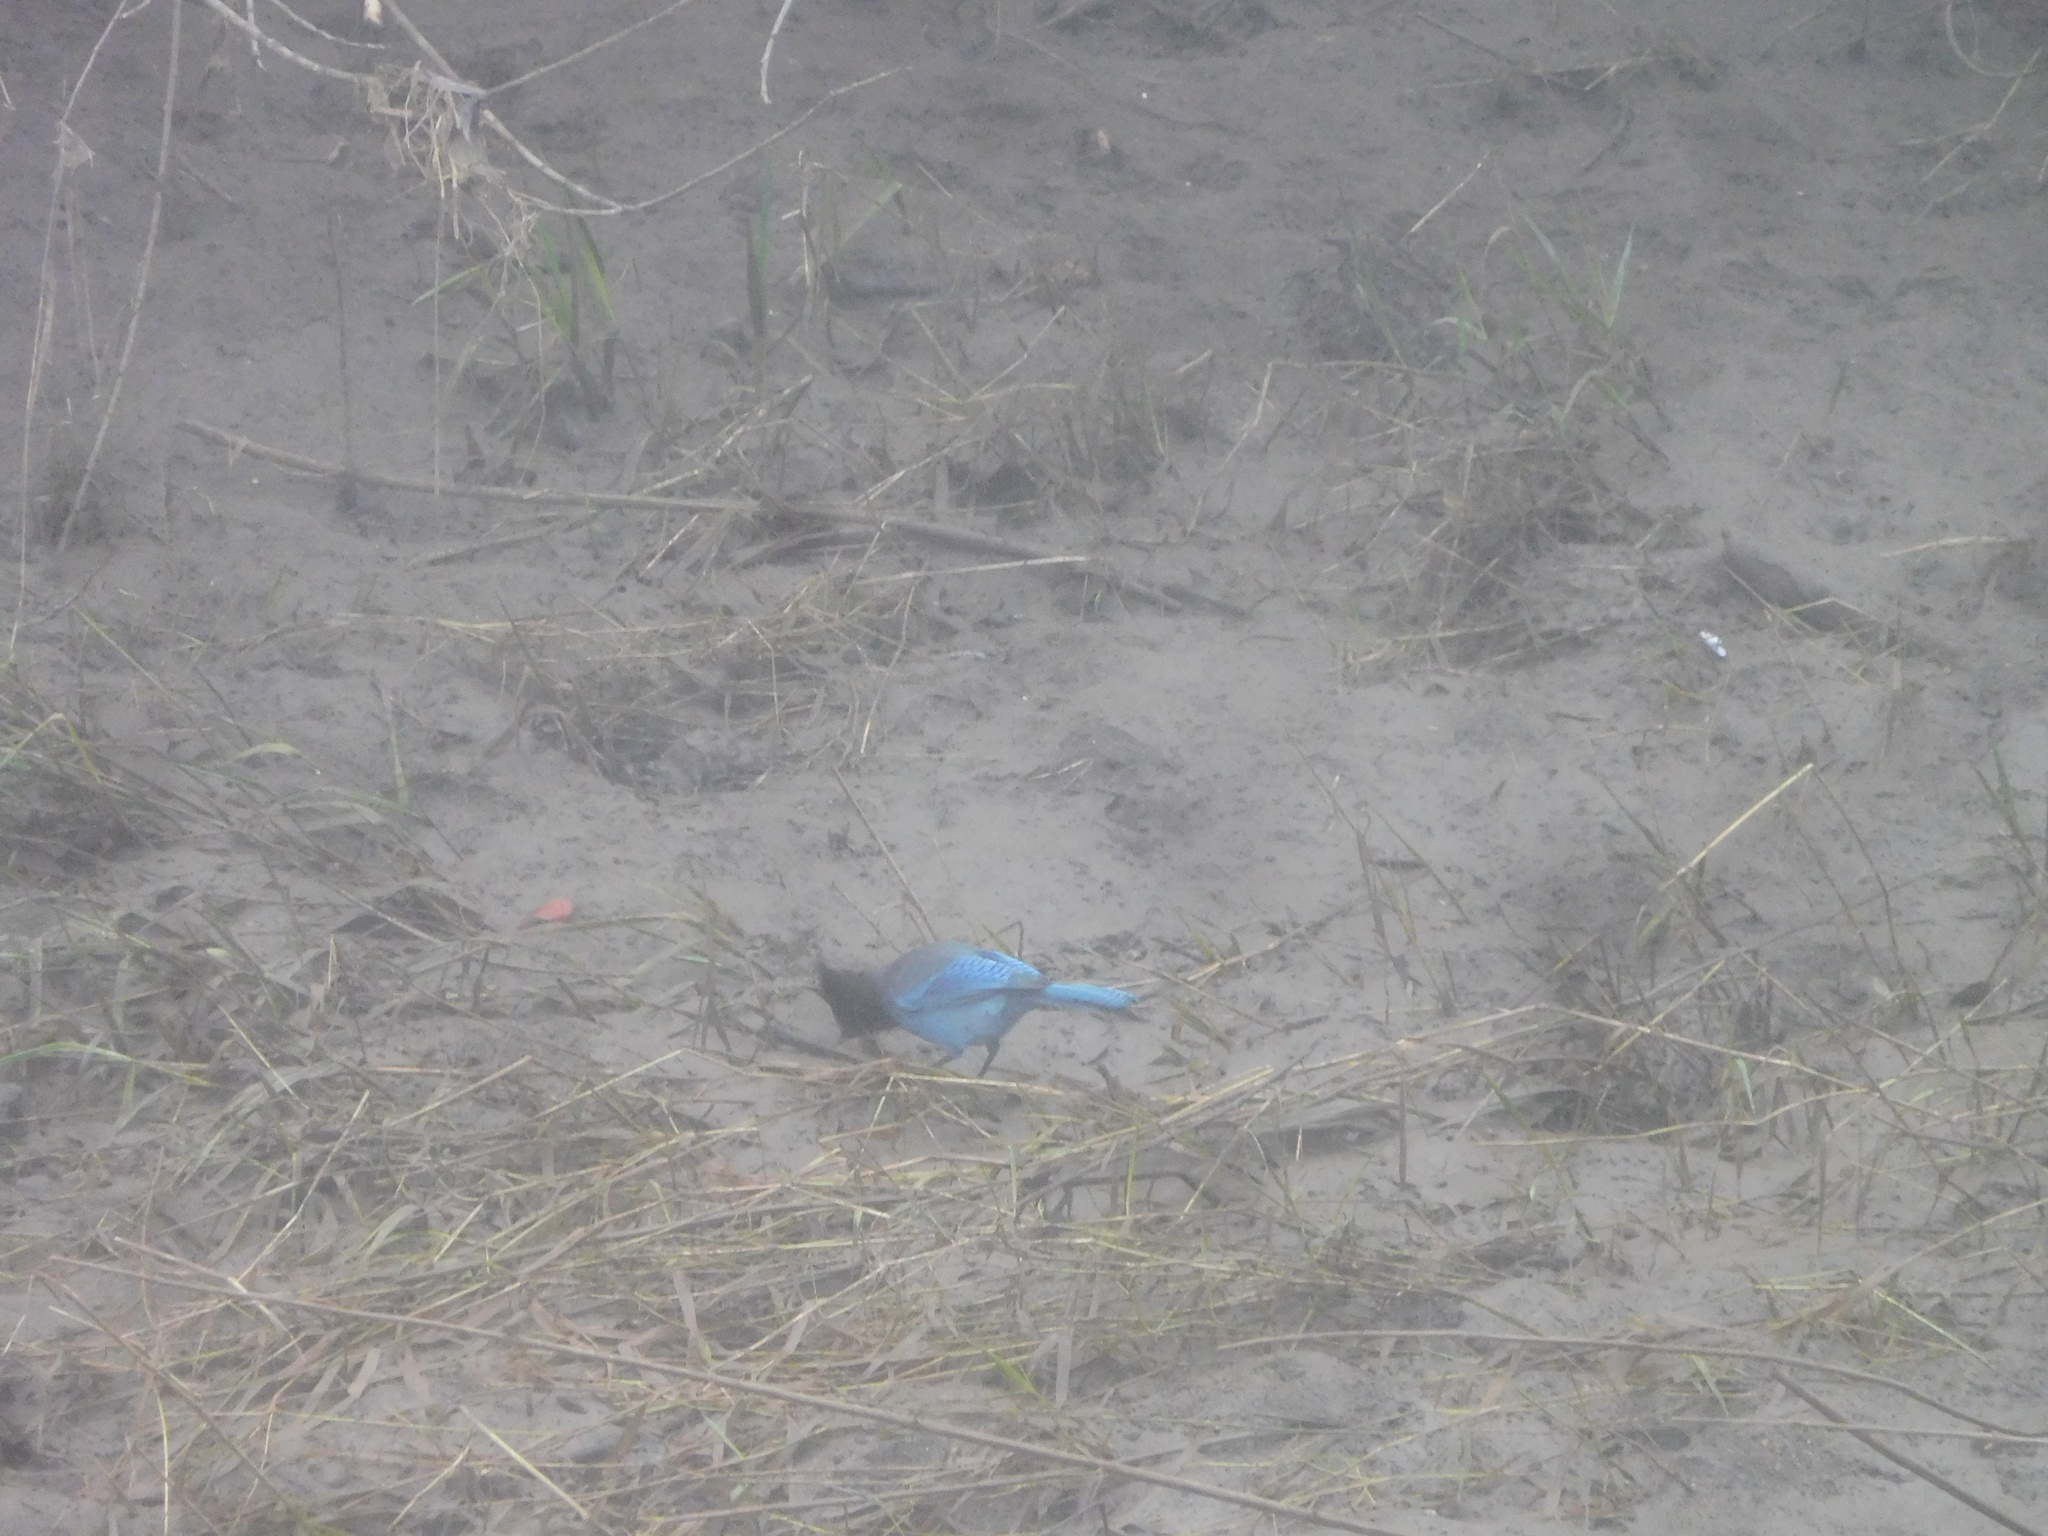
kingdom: Animalia
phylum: Chordata
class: Aves
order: Passeriformes
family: Corvidae
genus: Cyanocitta
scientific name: Cyanocitta stelleri
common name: Steller's jay
